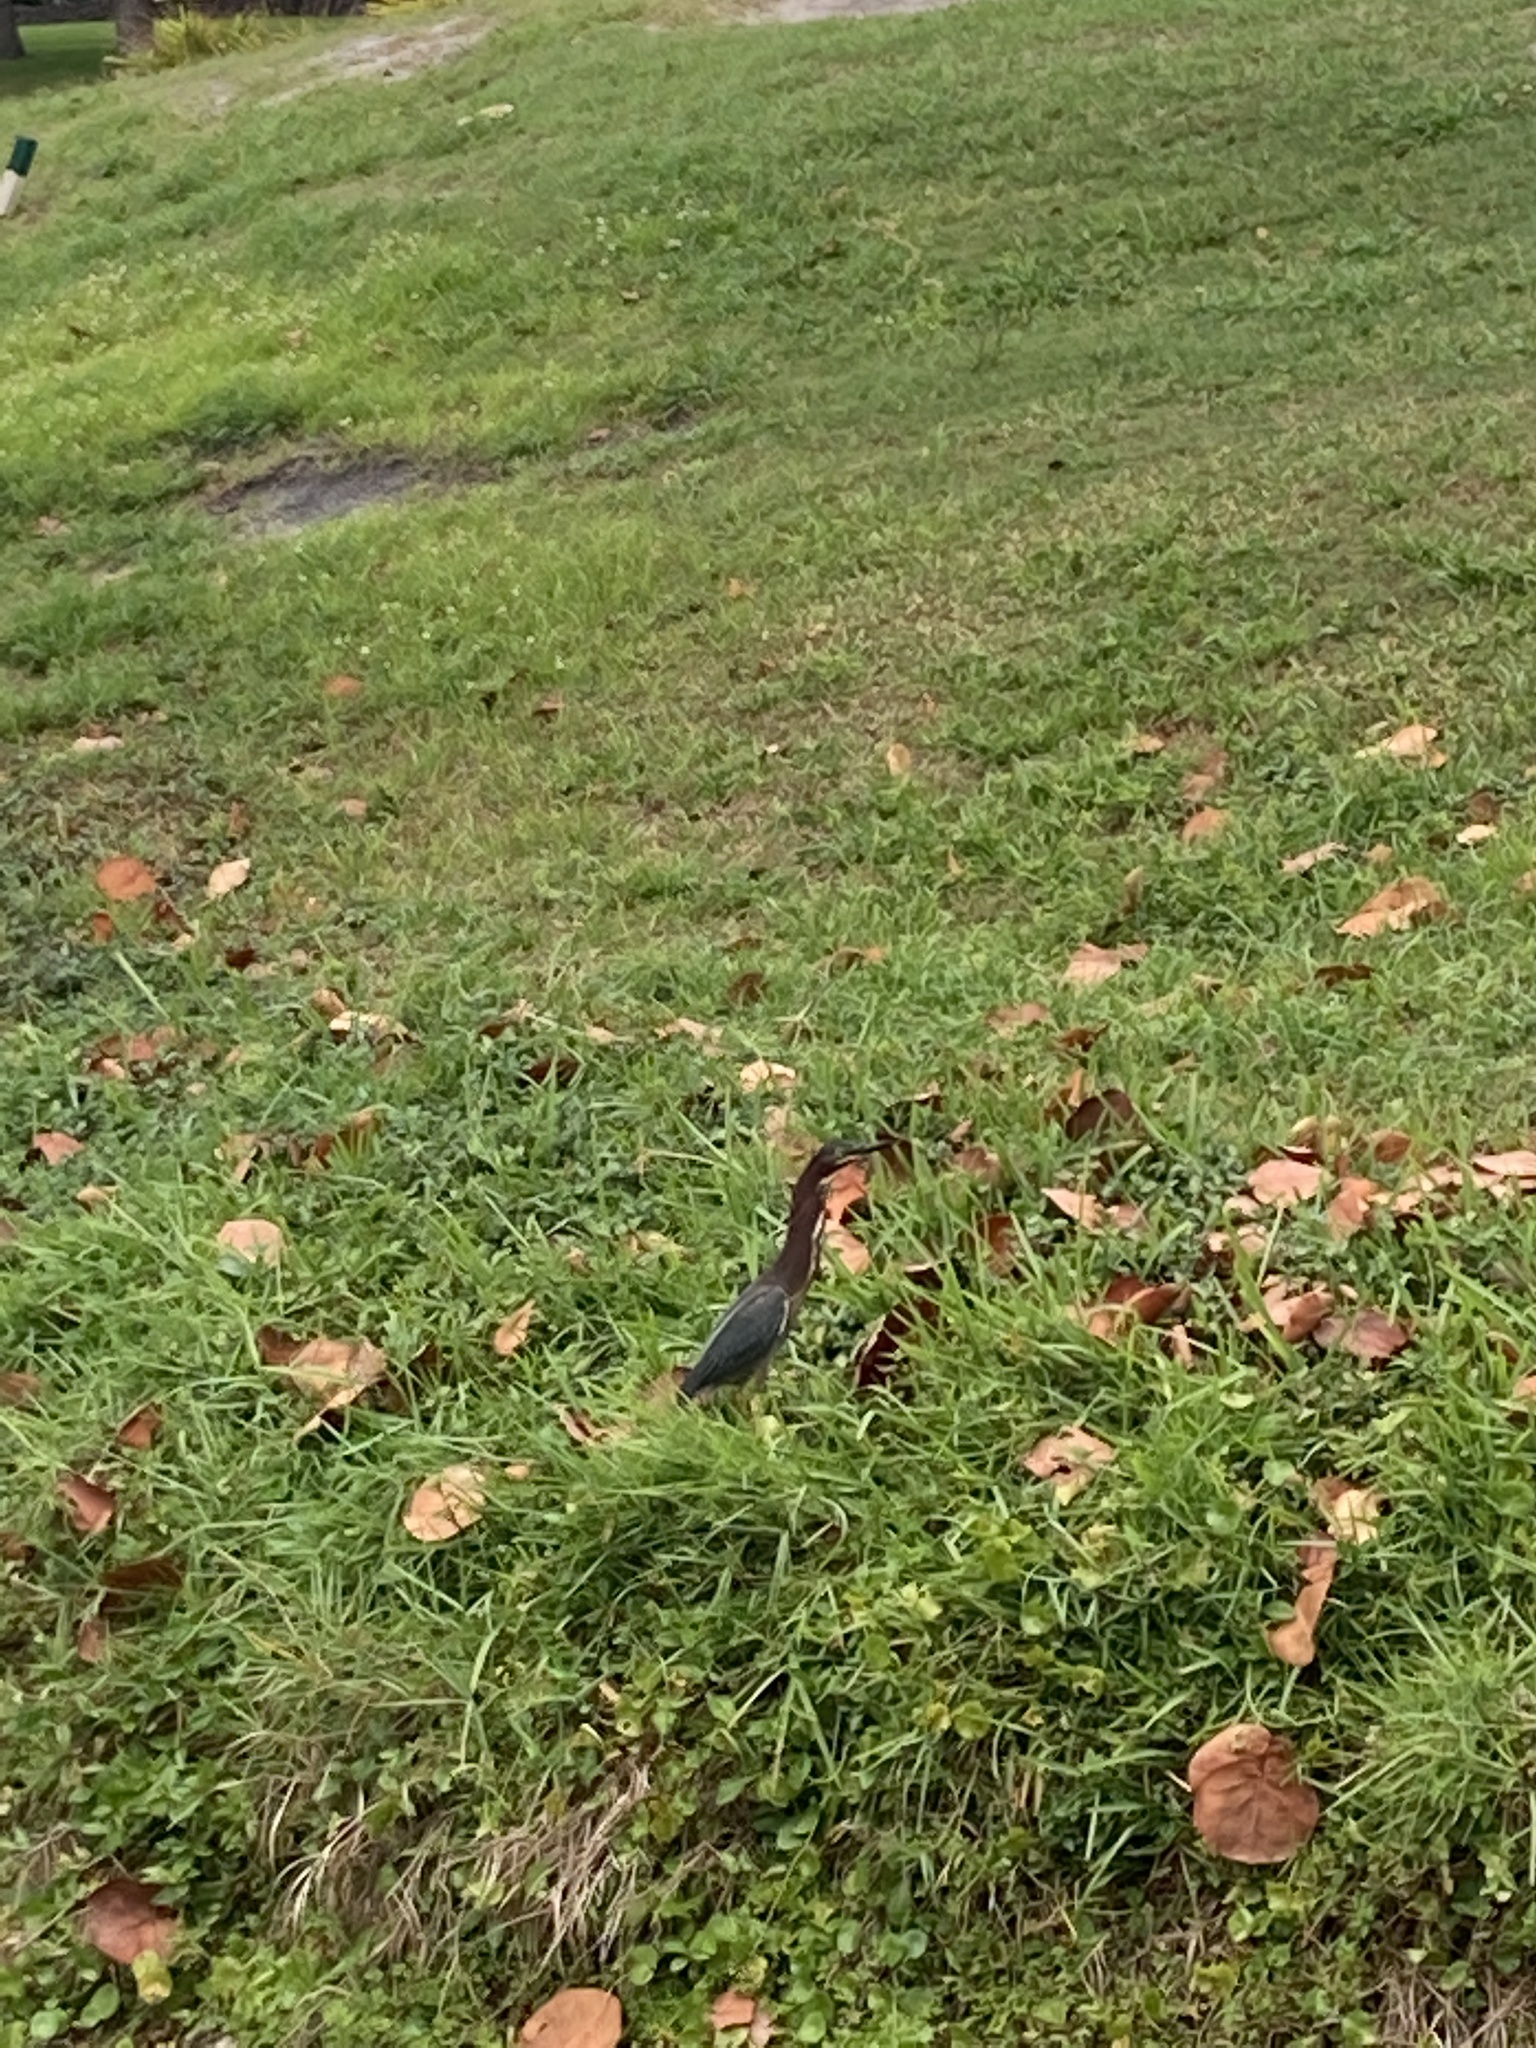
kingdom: Animalia
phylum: Chordata
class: Aves
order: Pelecaniformes
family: Ardeidae
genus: Butorides
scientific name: Butorides virescens
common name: Green heron
